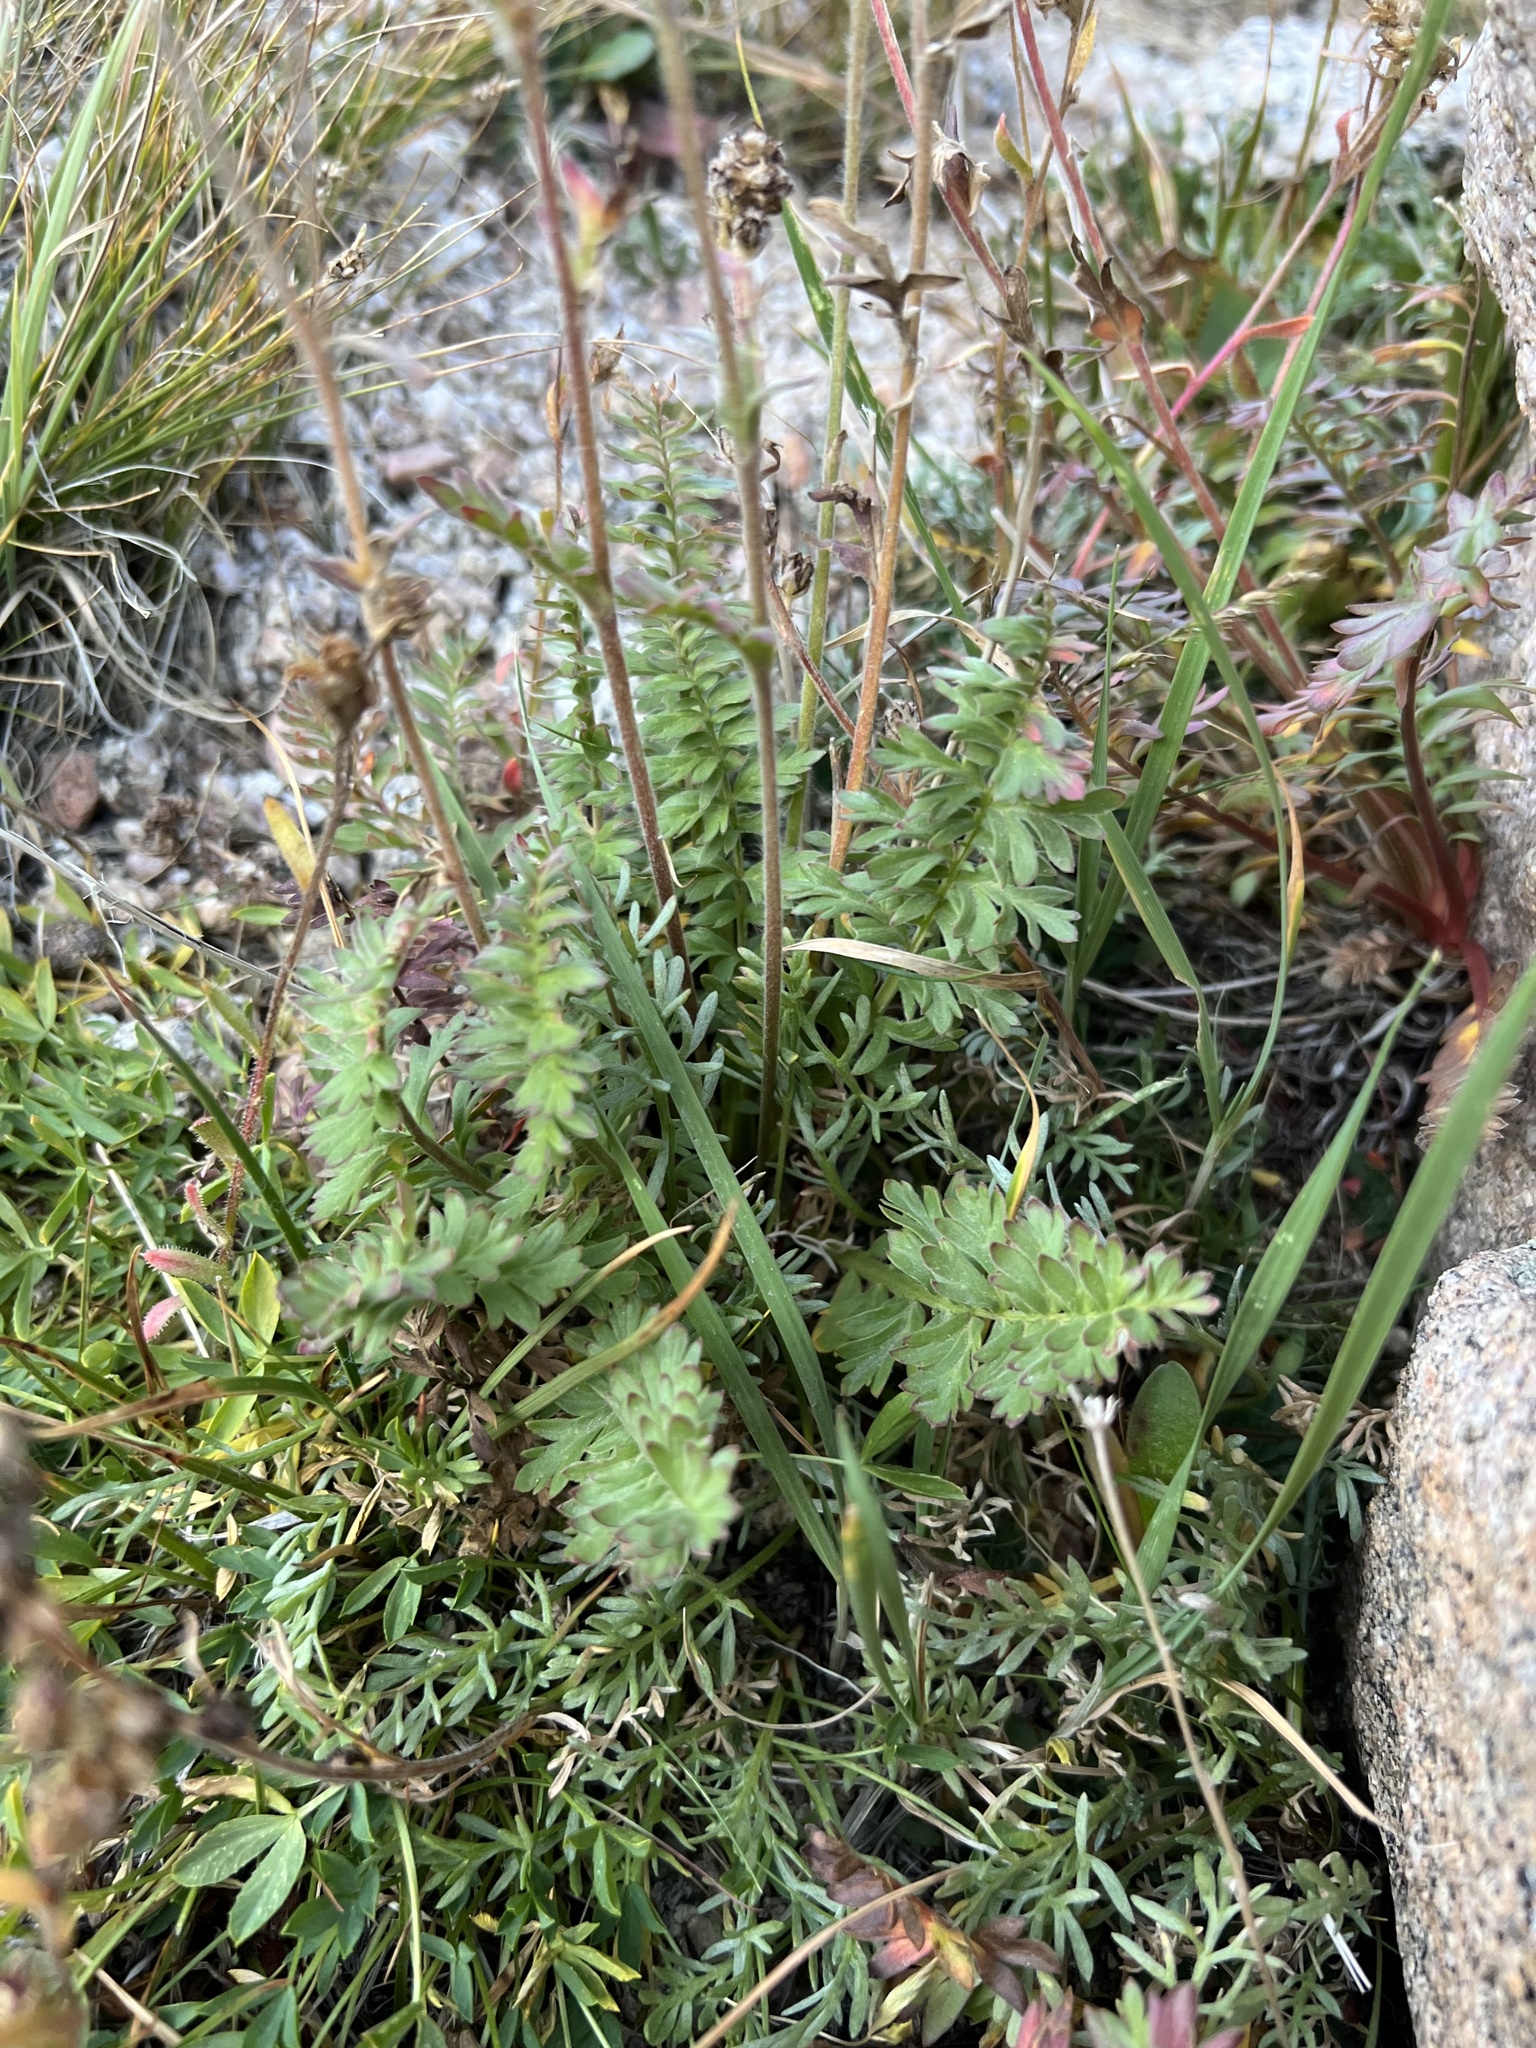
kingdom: Plantae
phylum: Tracheophyta
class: Magnoliopsida
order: Rosales
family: Rosaceae
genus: Geum
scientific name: Geum rossii
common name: Alpine avens
